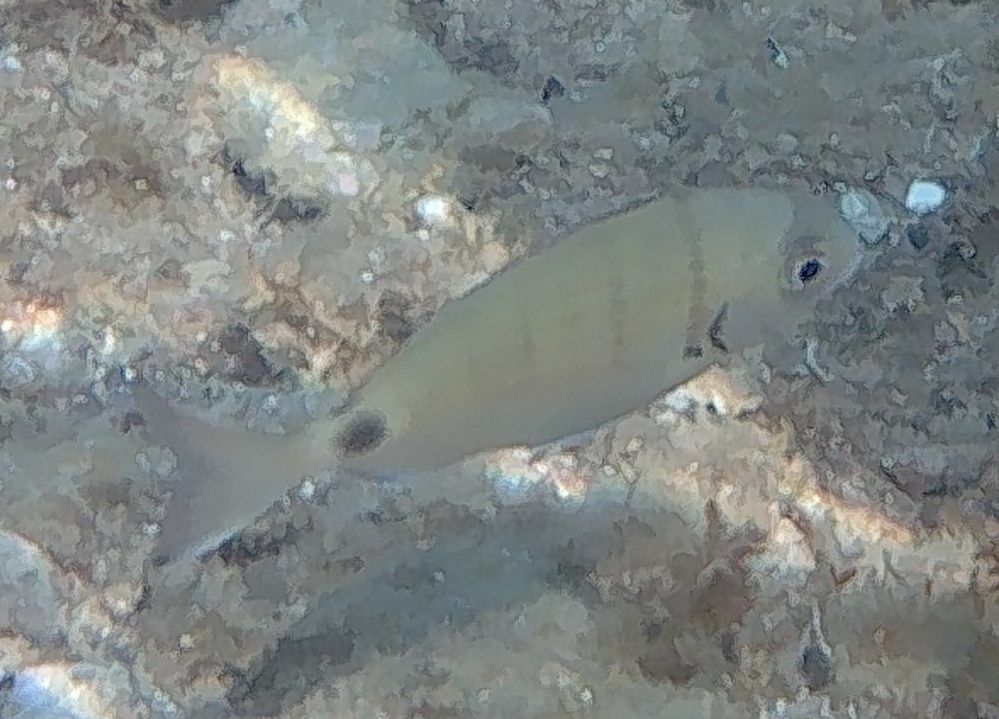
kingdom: Animalia
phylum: Chordata
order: Perciformes
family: Sparidae
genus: Diplodus
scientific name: Diplodus sargus
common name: White seabream
